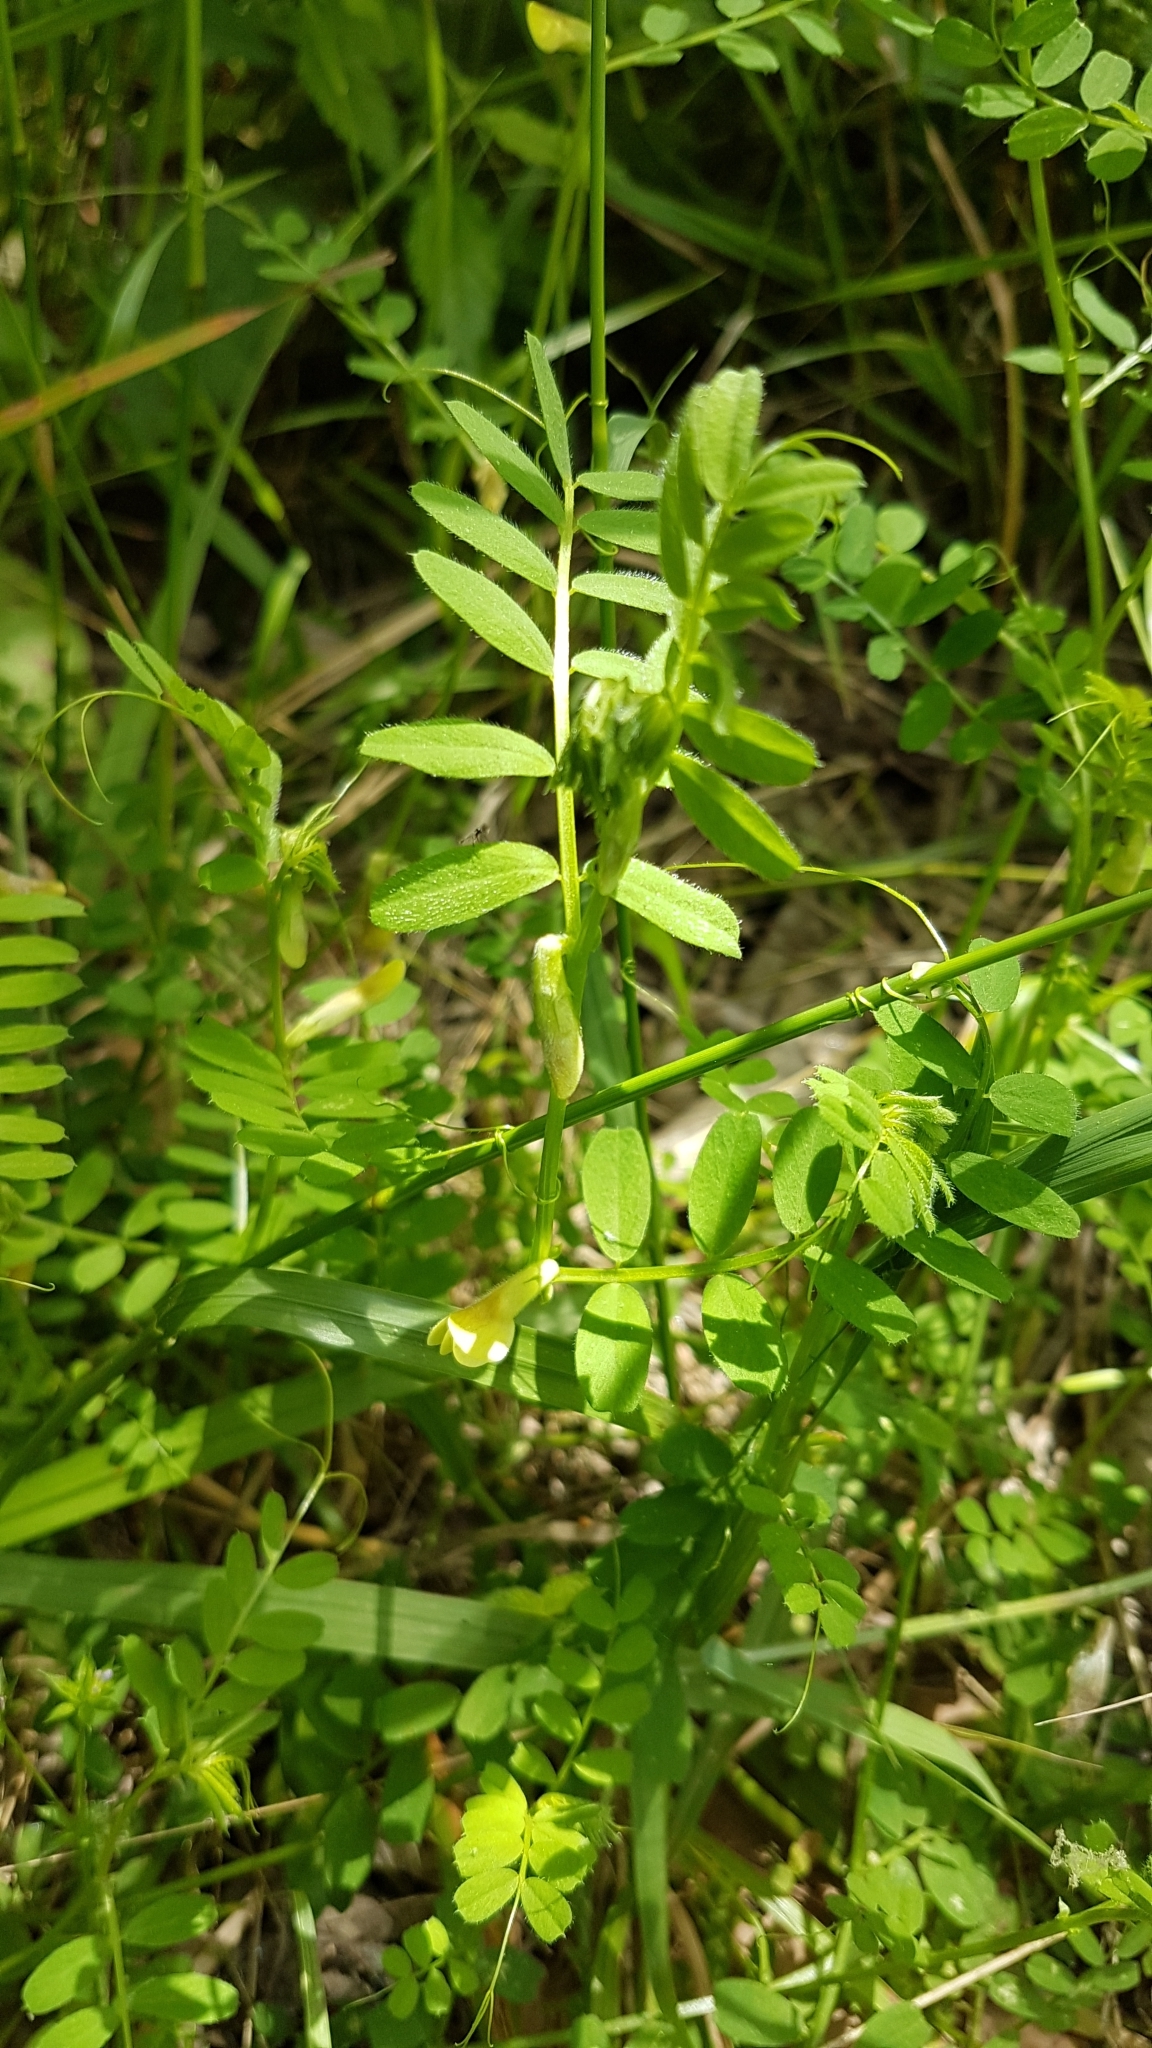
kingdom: Plantae
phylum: Tracheophyta
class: Magnoliopsida
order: Fabales
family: Fabaceae
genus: Vicia
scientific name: Vicia hybrida
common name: Hairy yellow vetch
